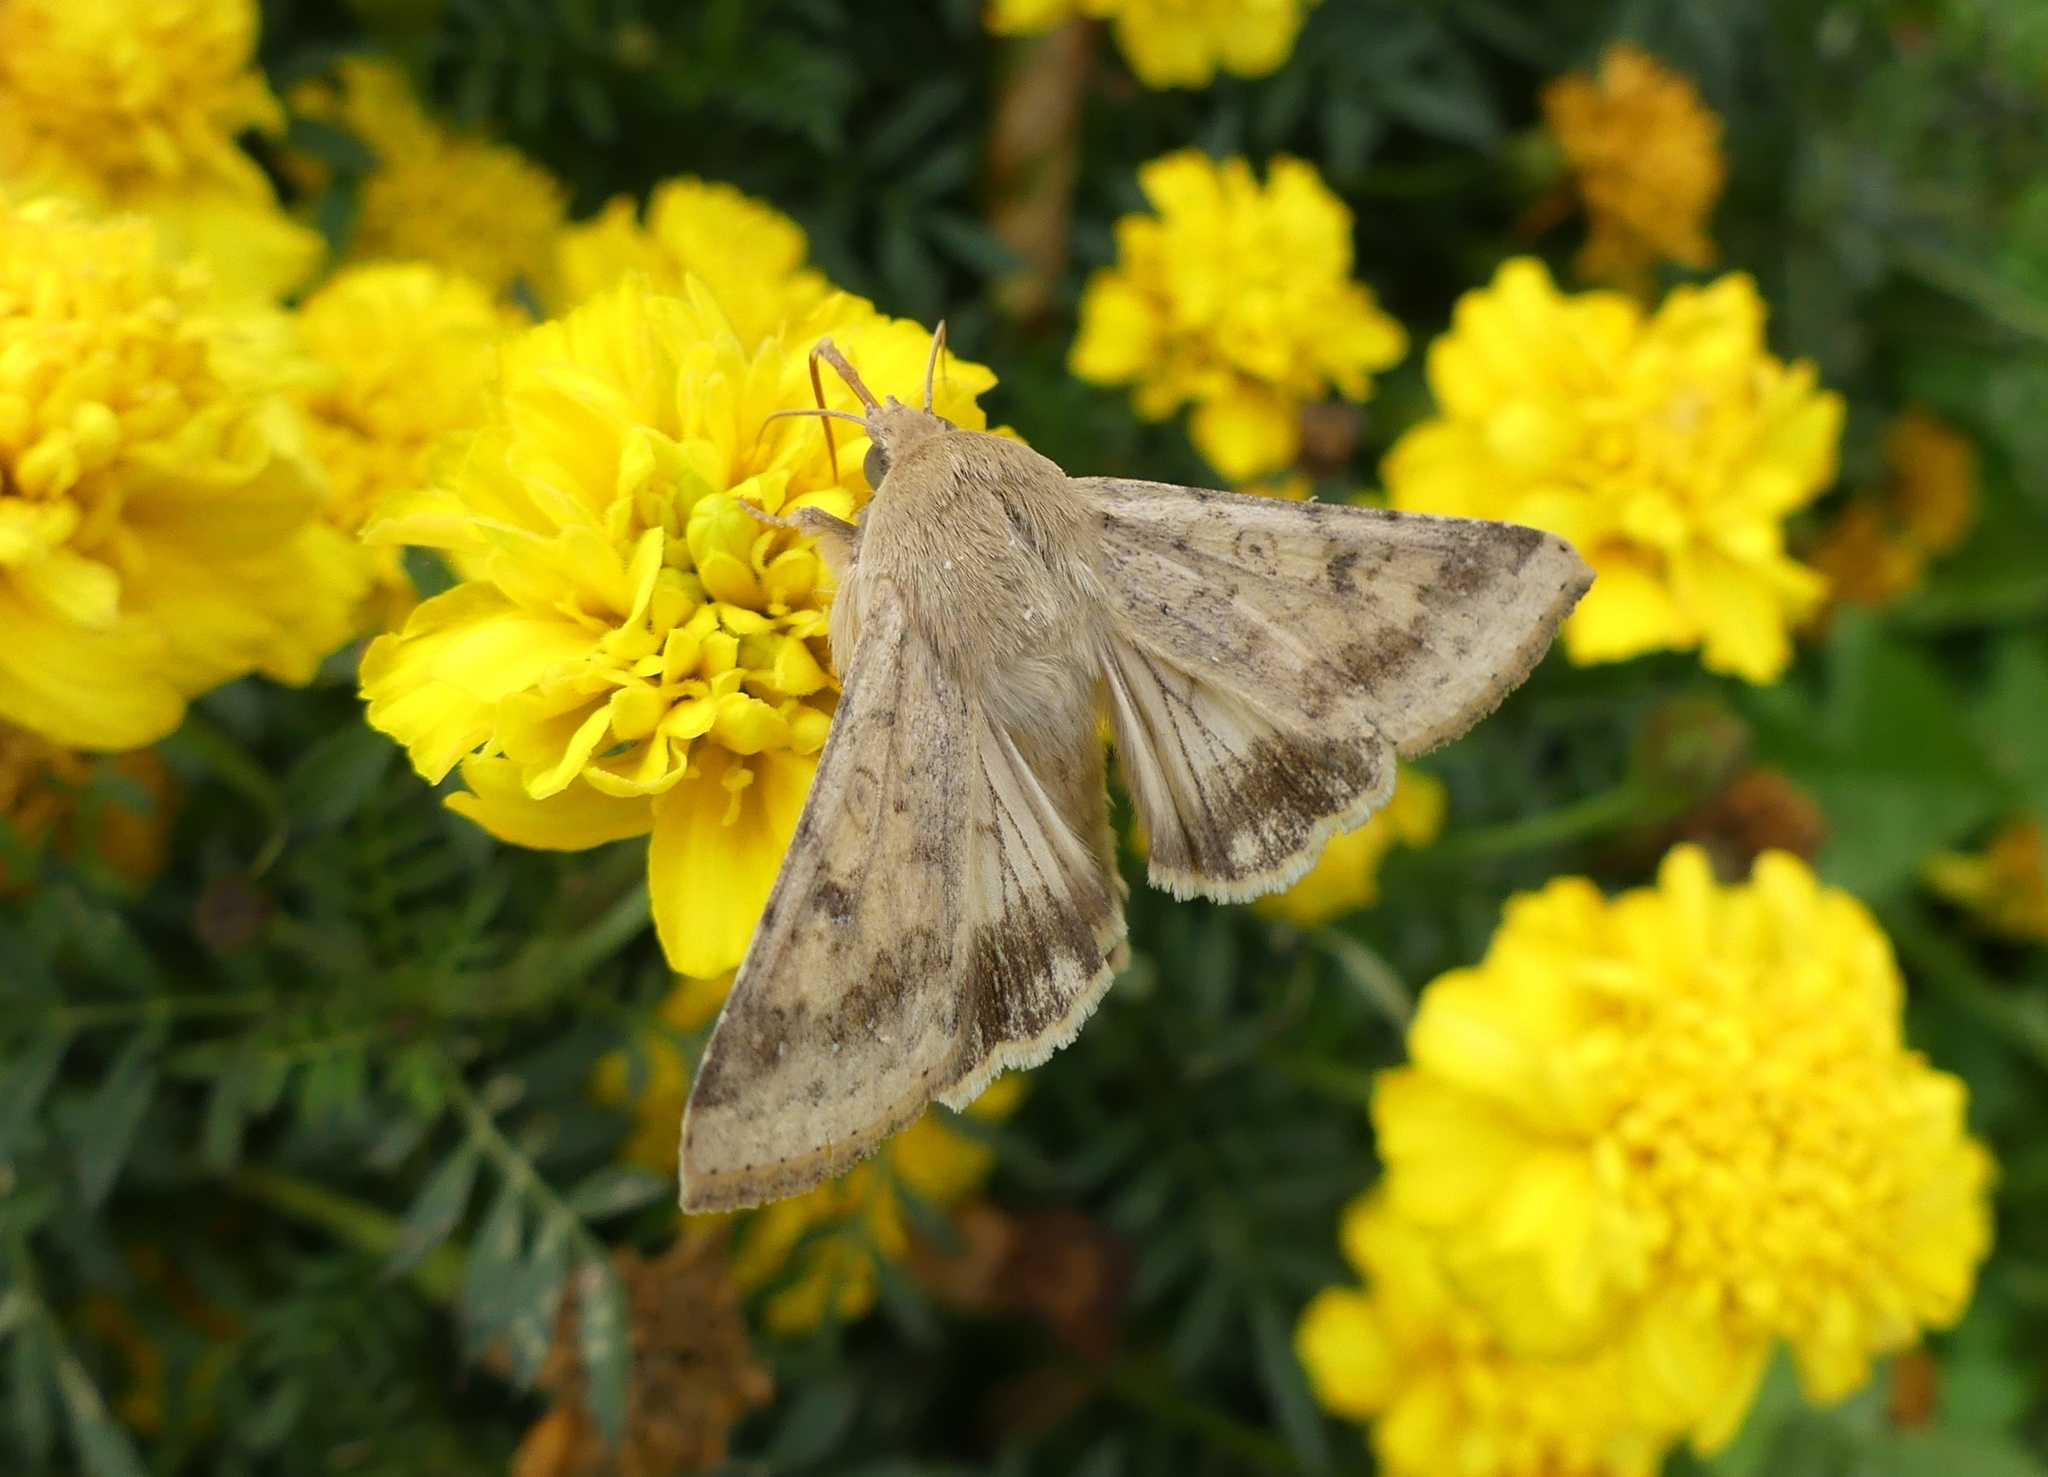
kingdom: Animalia
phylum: Arthropoda
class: Insecta
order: Lepidoptera
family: Noctuidae
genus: Helicoverpa
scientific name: Helicoverpa zea
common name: Bollworm
